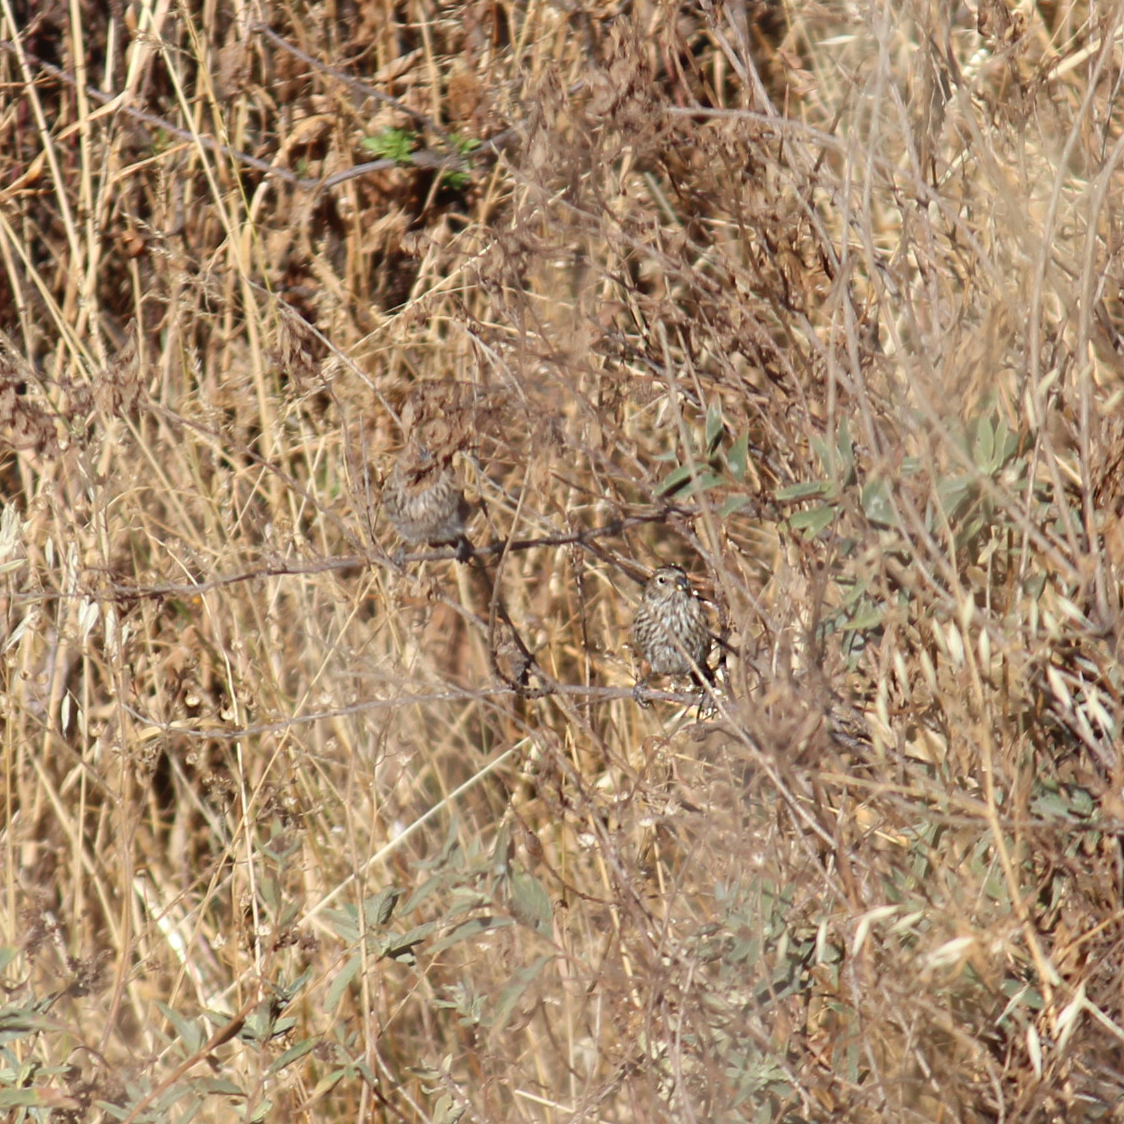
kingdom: Animalia
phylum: Chordata
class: Aves
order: Passeriformes
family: Thraupidae
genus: Rhopospina
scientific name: Rhopospina fruticeti
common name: Mourning sierra finch
